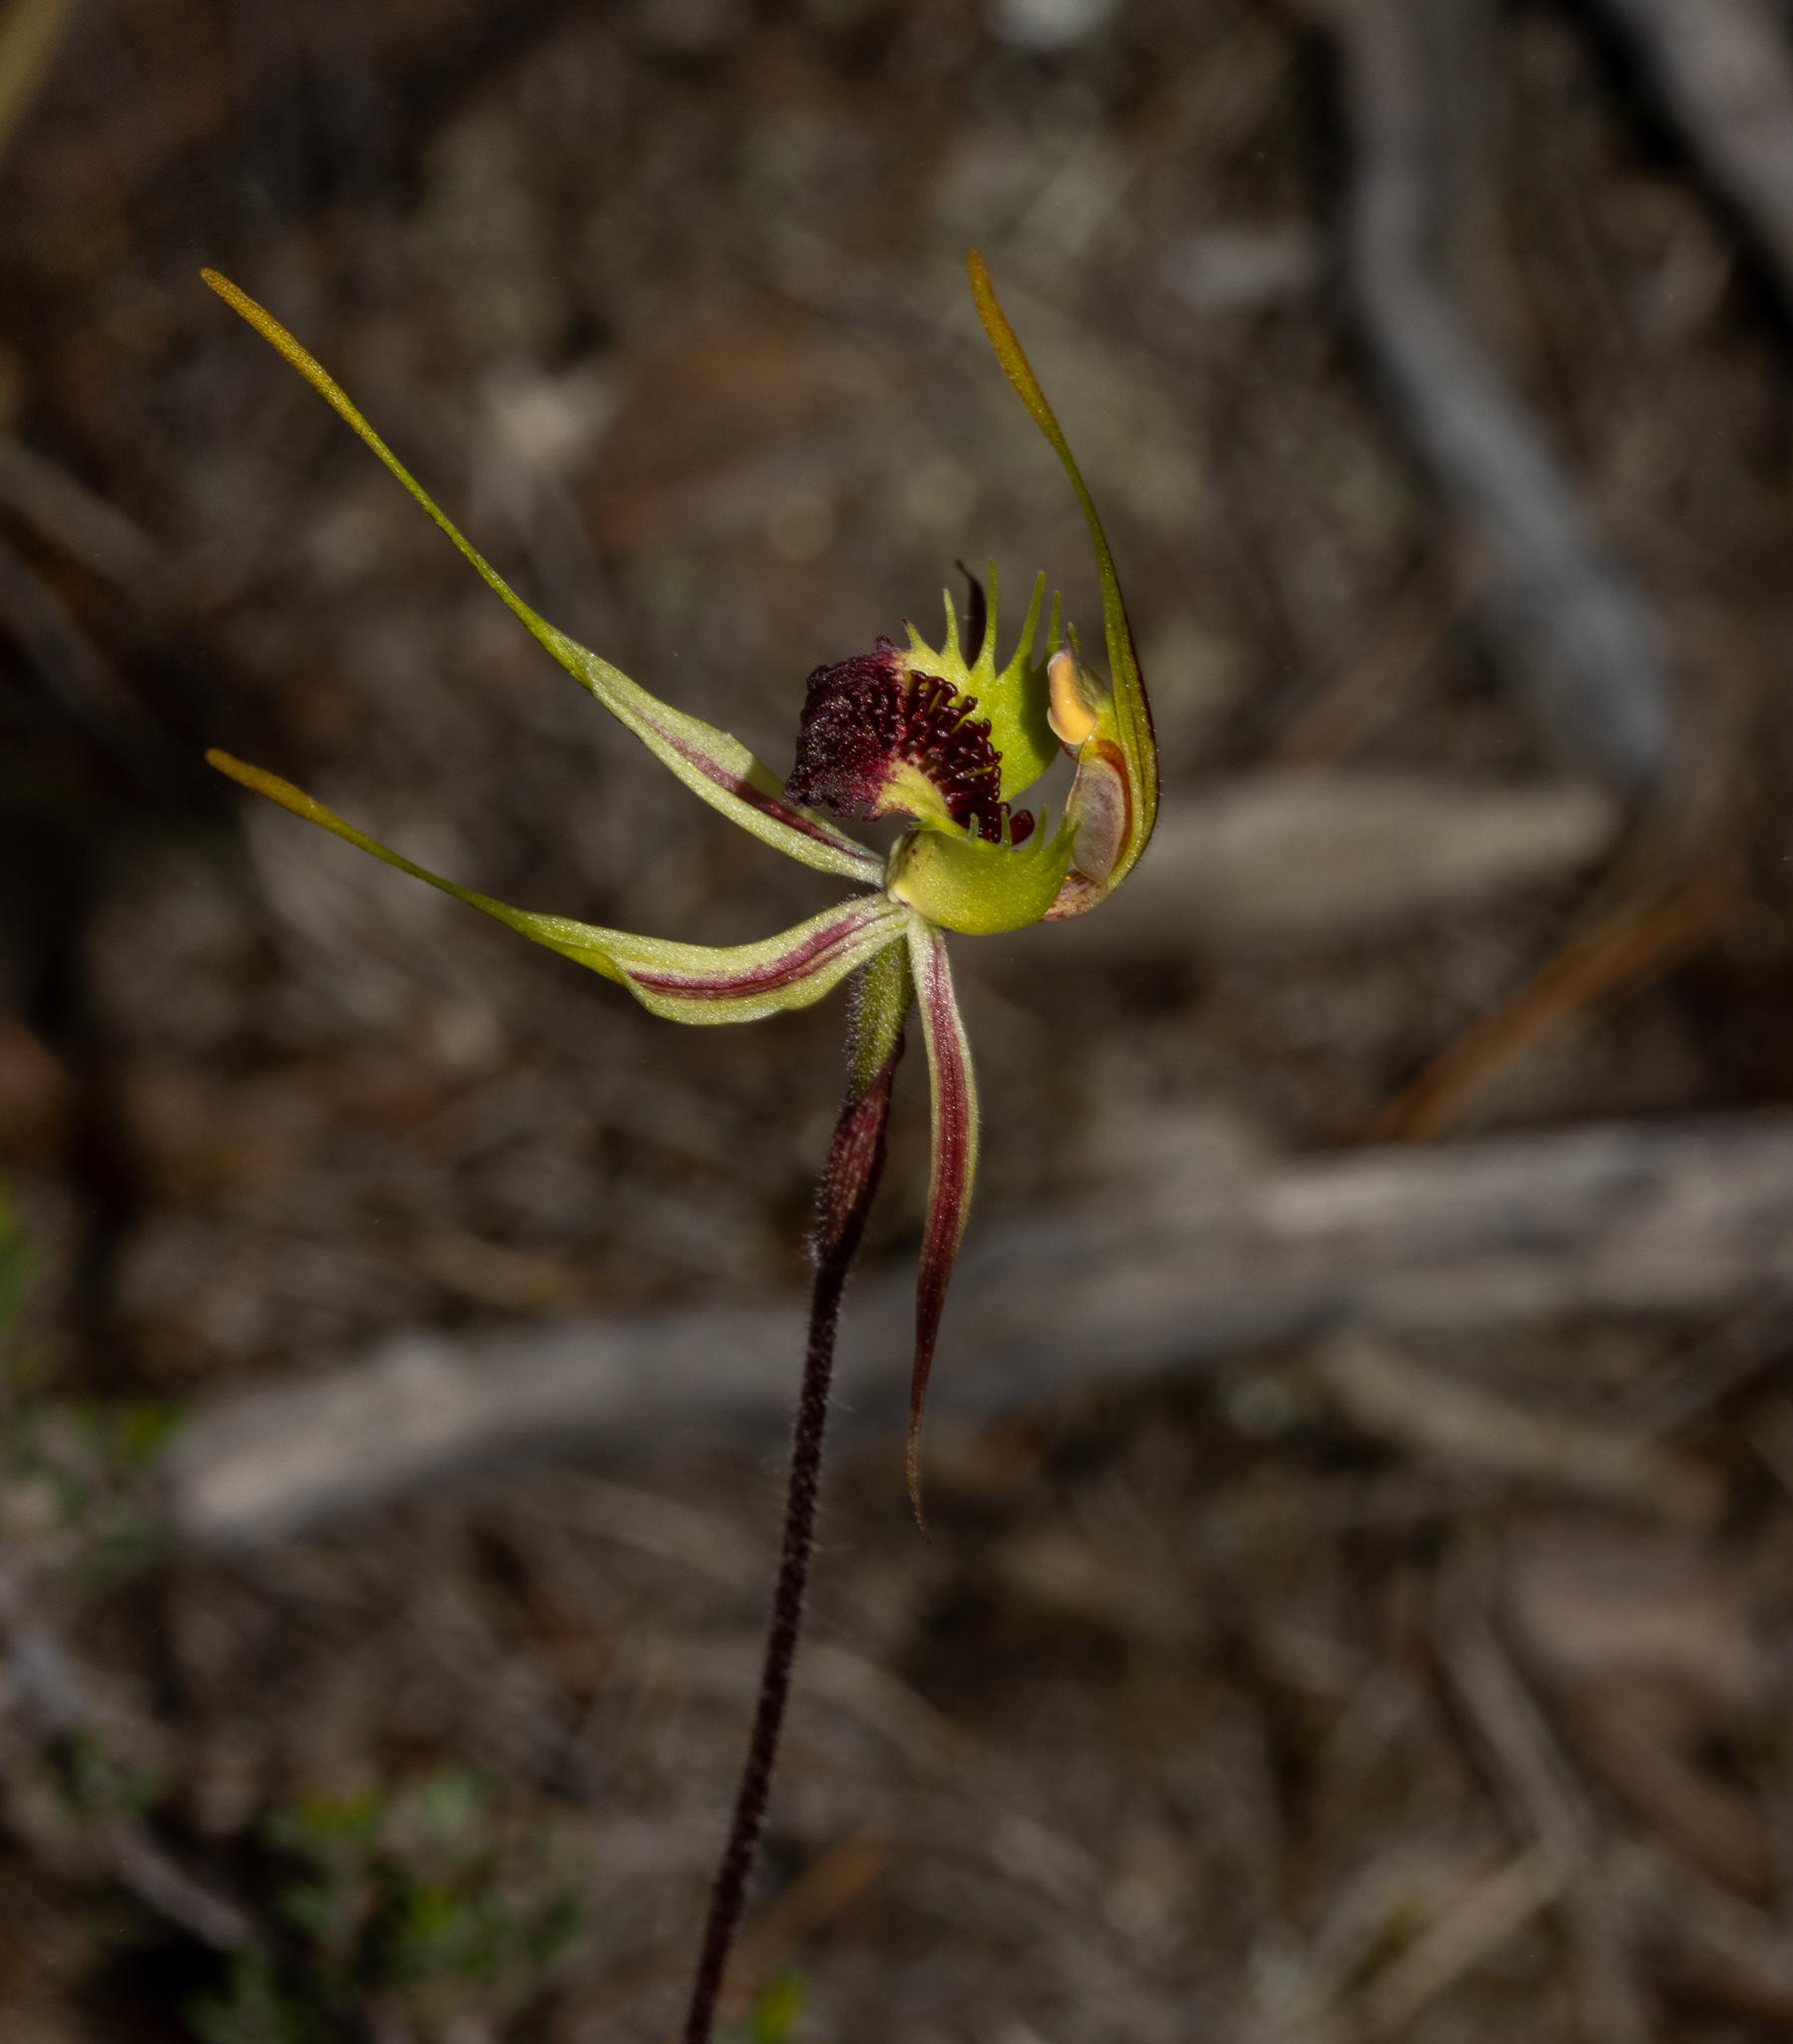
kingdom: Plantae
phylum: Tracheophyta
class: Liliopsida
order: Asparagales
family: Orchidaceae
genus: Caladenia
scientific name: Caladenia septuosa
